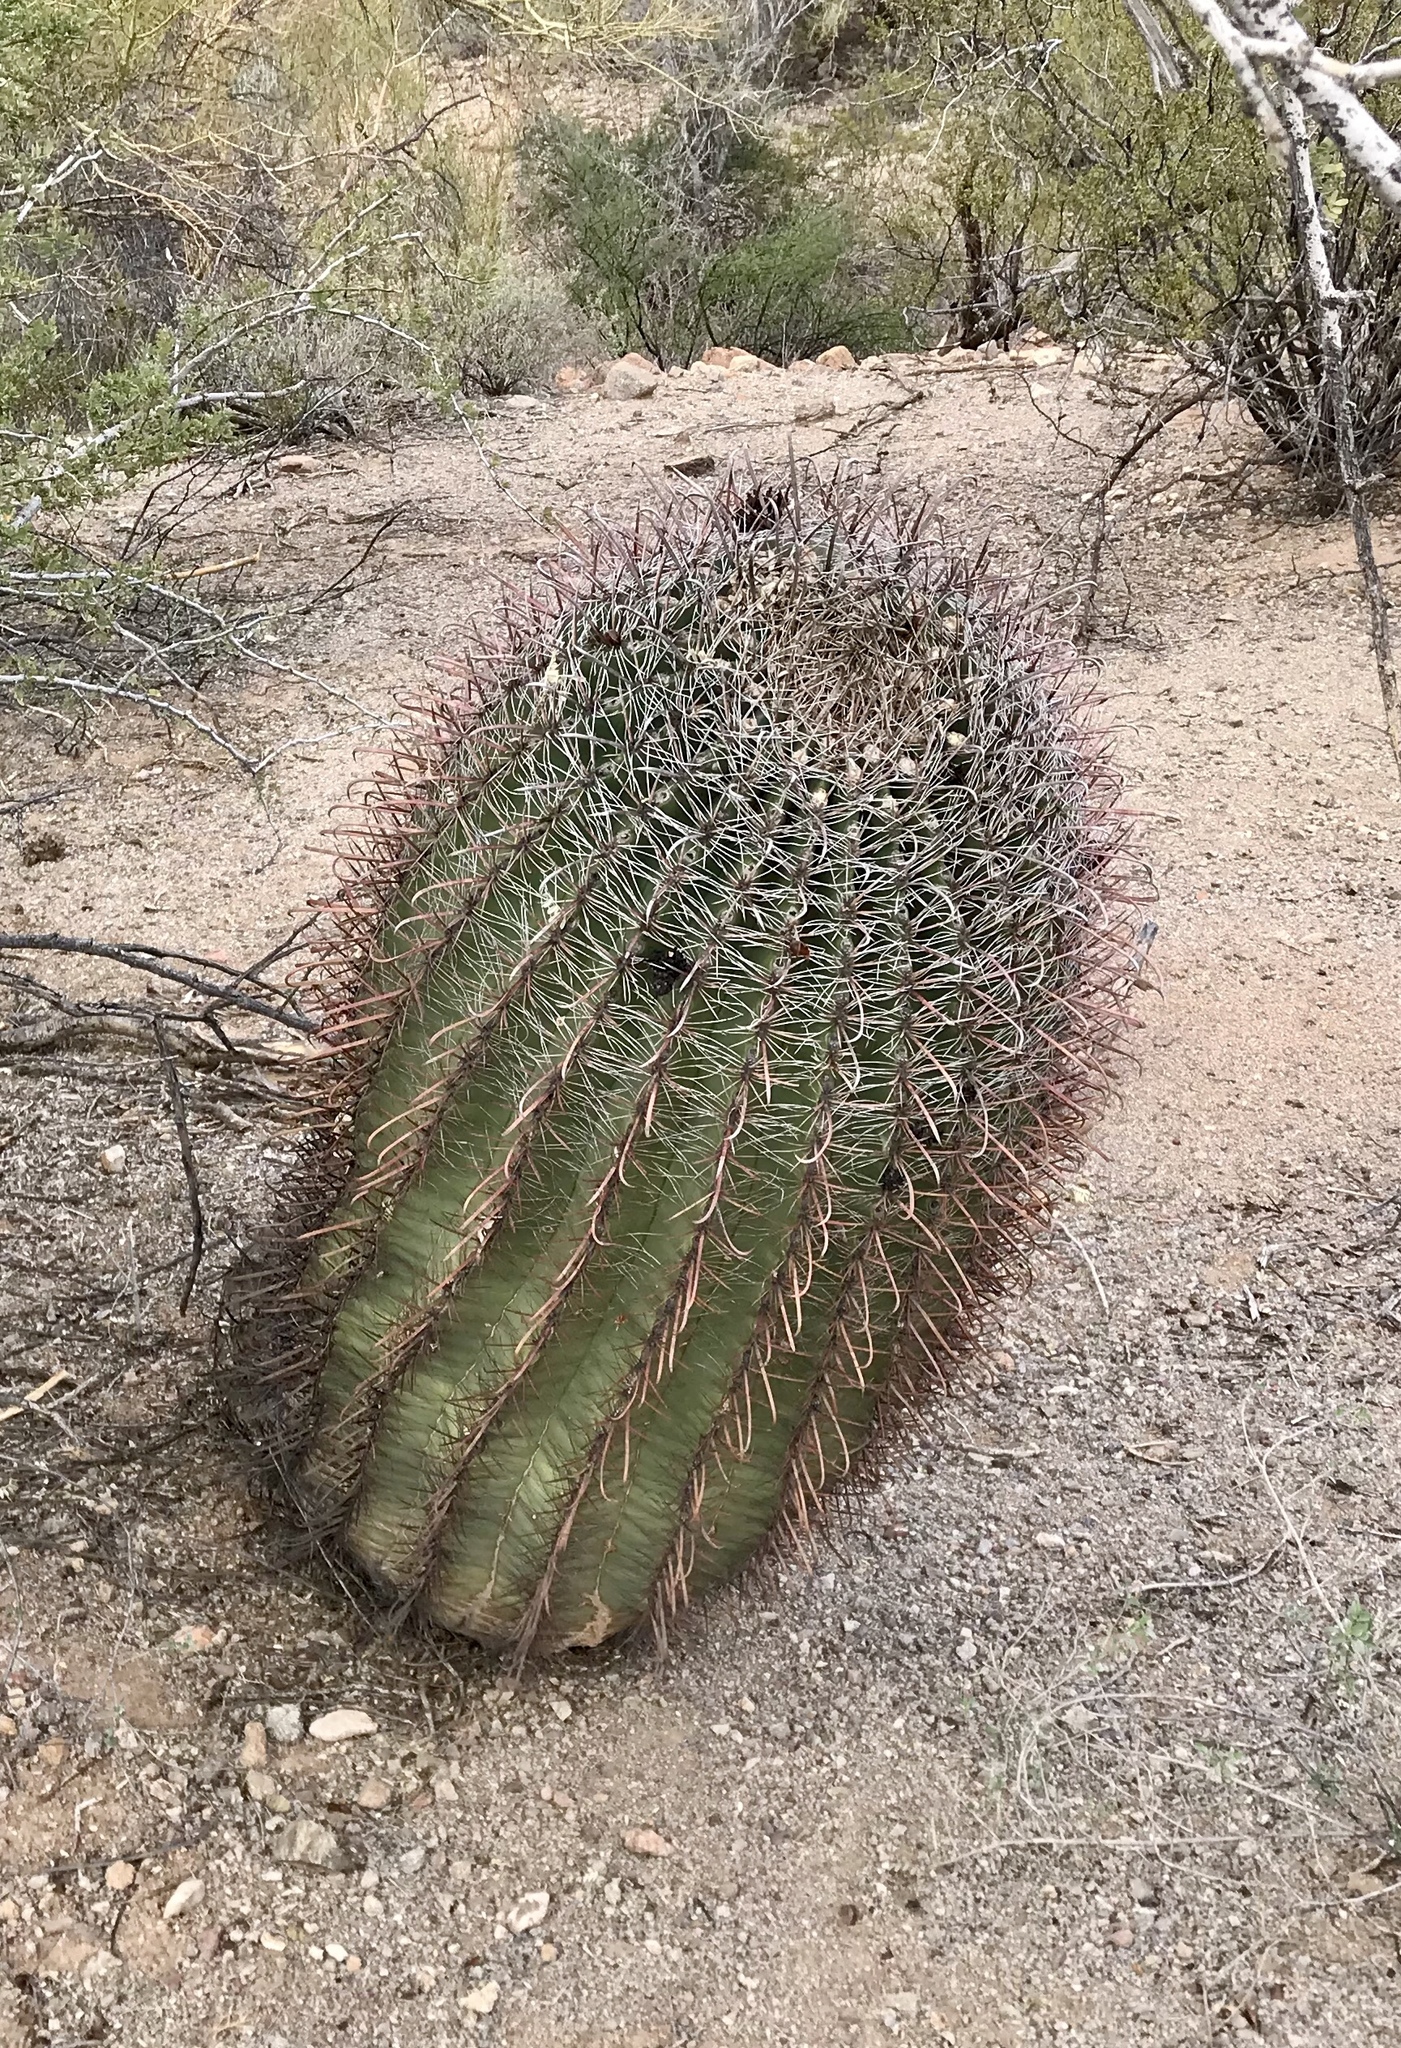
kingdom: Plantae
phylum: Tracheophyta
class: Magnoliopsida
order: Caryophyllales
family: Cactaceae
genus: Ferocactus
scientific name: Ferocactus wislizeni
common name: Candy barrel cactus
